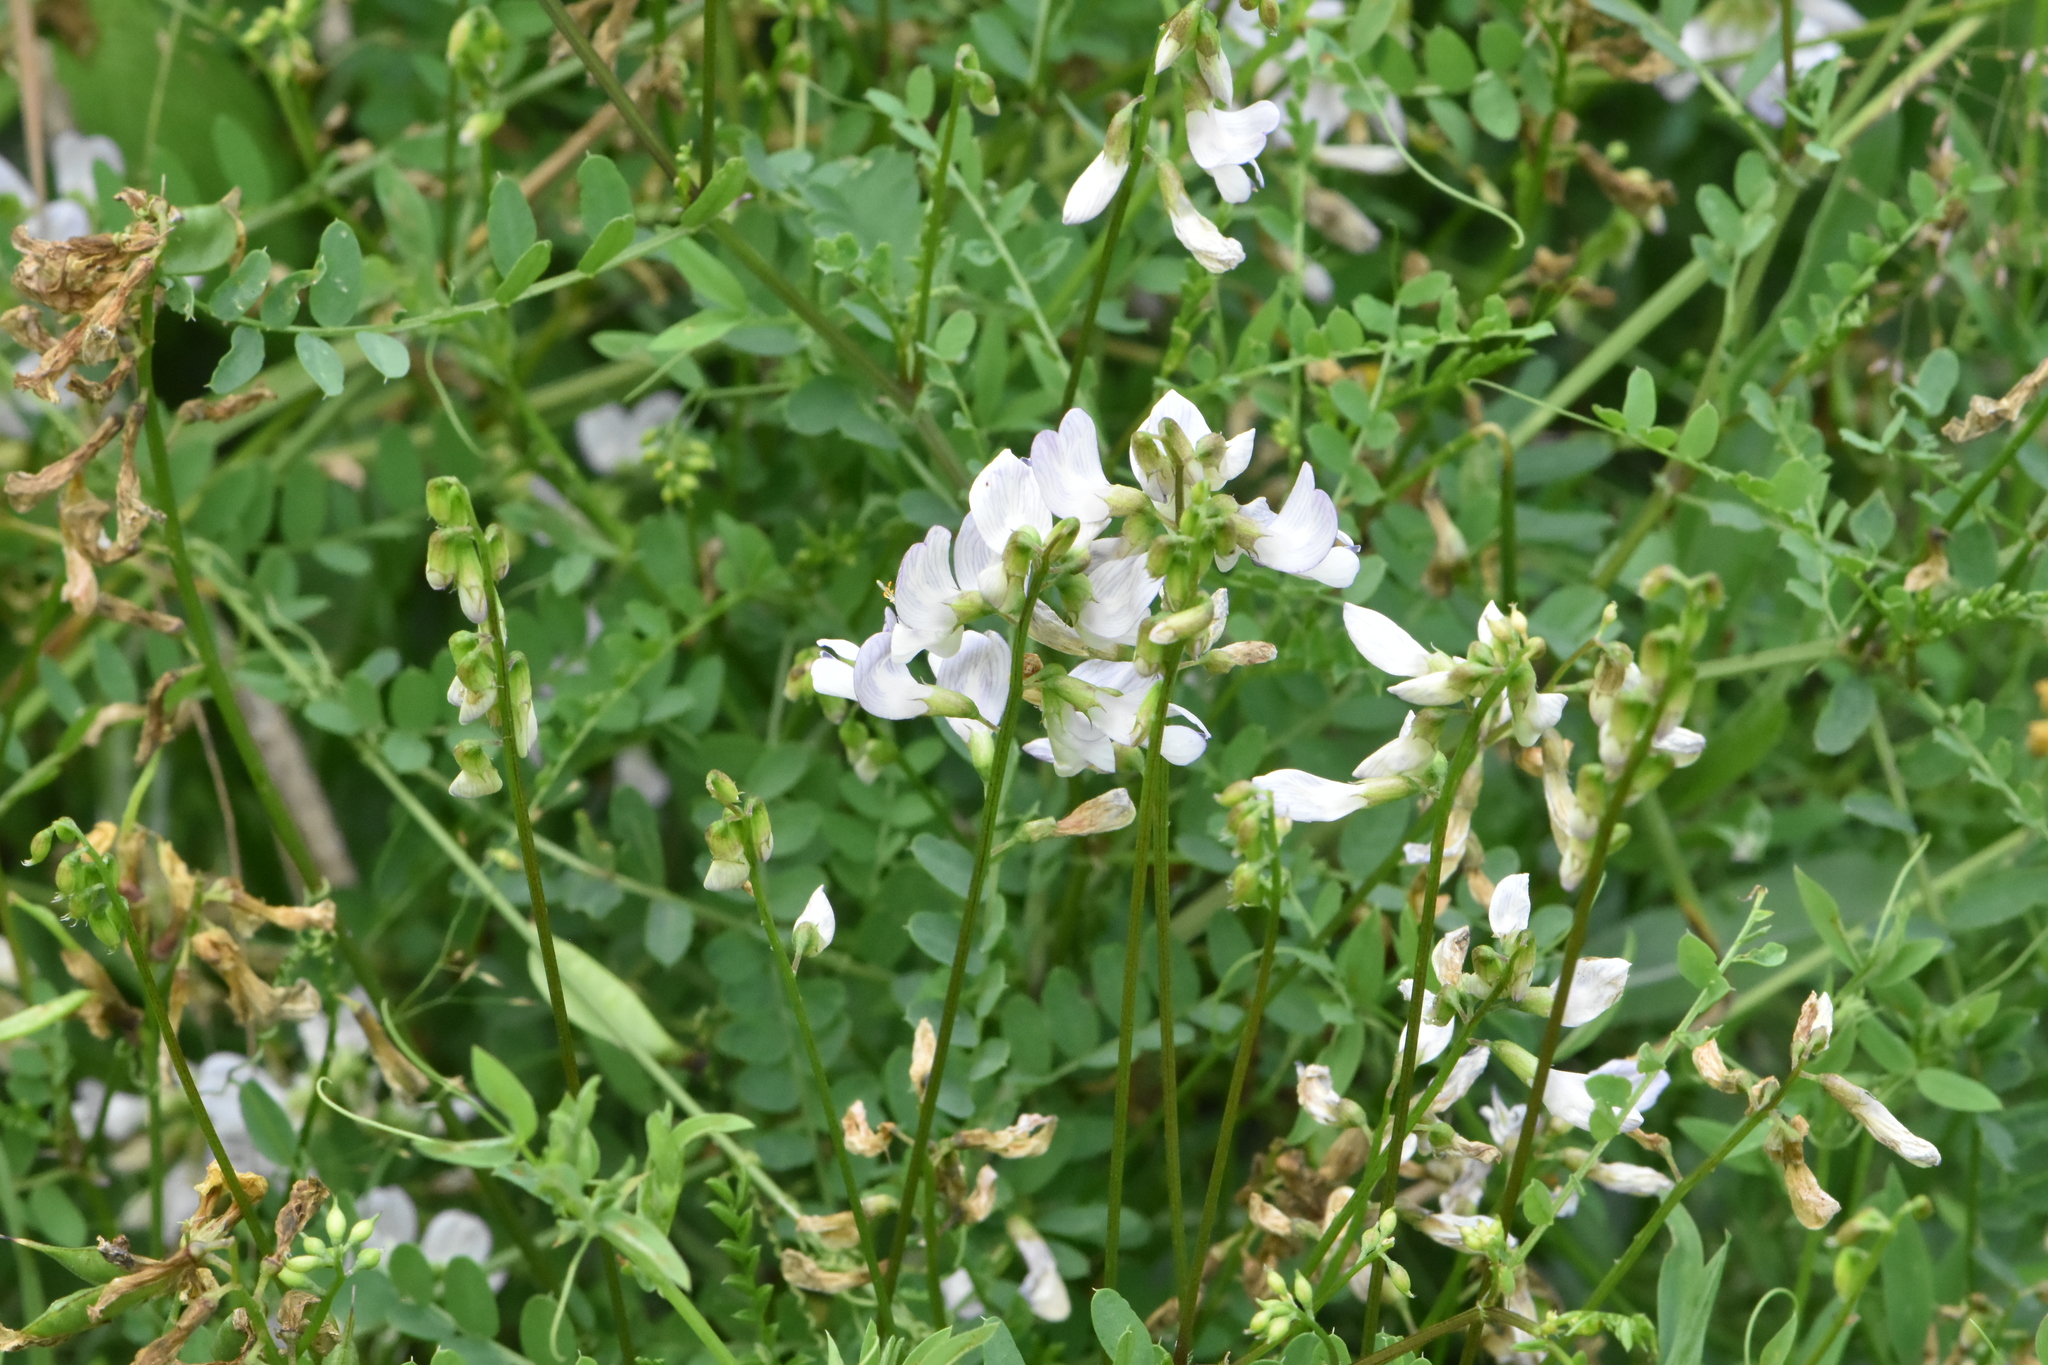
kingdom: Plantae
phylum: Tracheophyta
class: Magnoliopsida
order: Fabales
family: Fabaceae
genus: Vicia
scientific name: Vicia sylvatica
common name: Wood vetch
